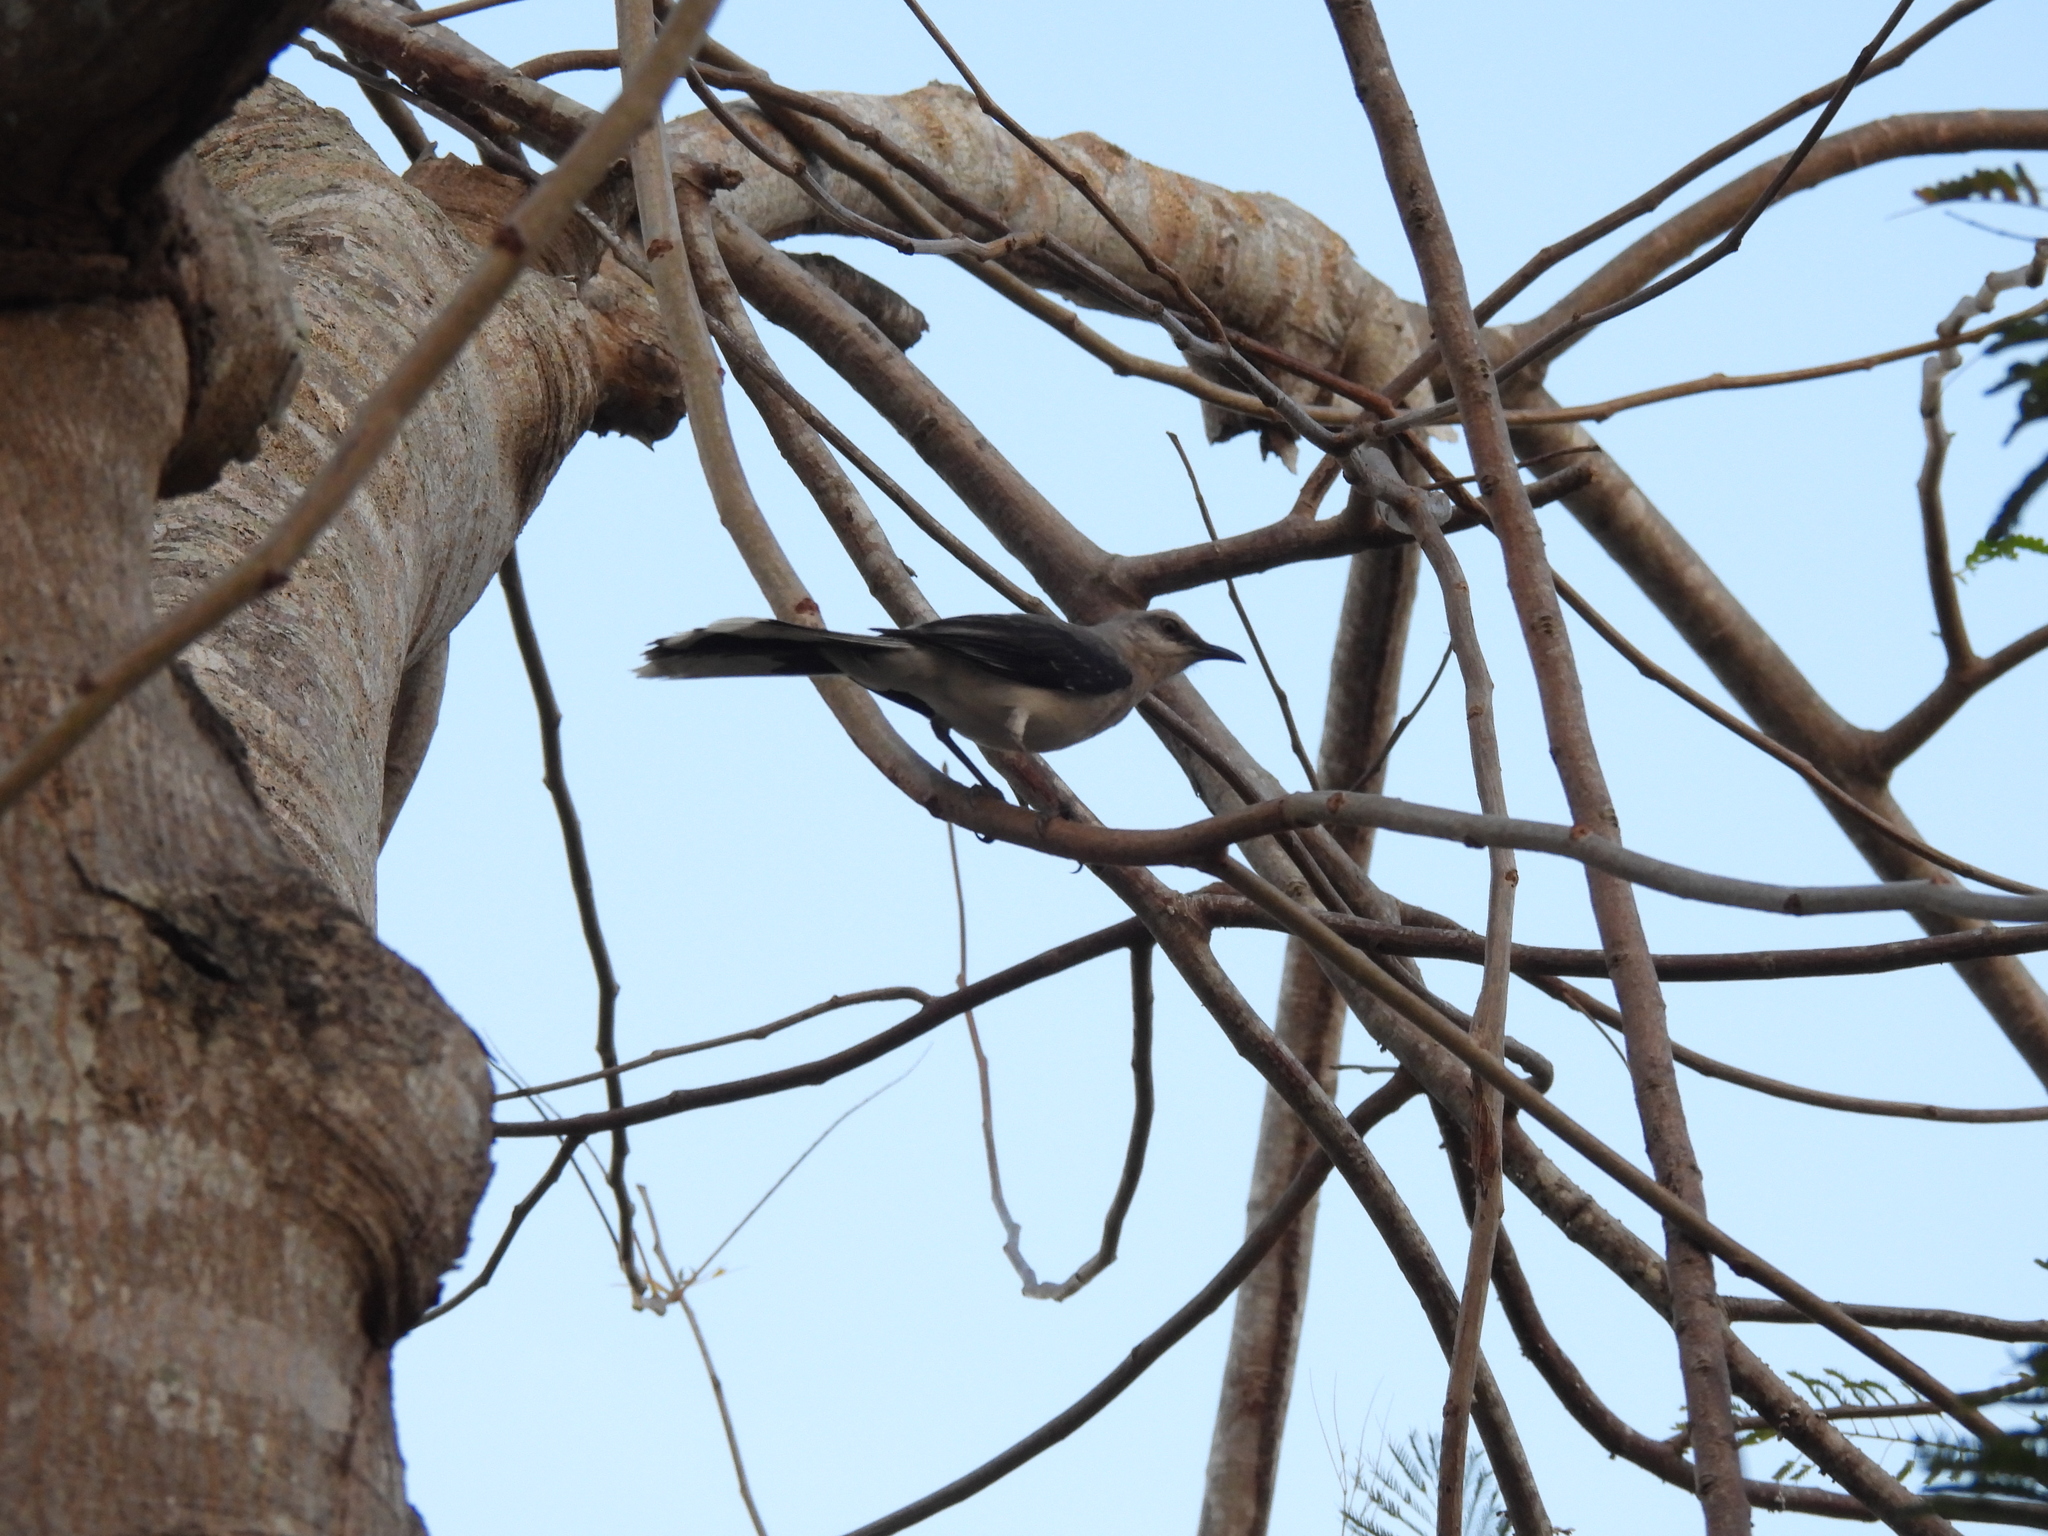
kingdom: Animalia
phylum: Chordata
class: Aves
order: Passeriformes
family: Mimidae
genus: Mimus
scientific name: Mimus gilvus
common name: Tropical mockingbird
